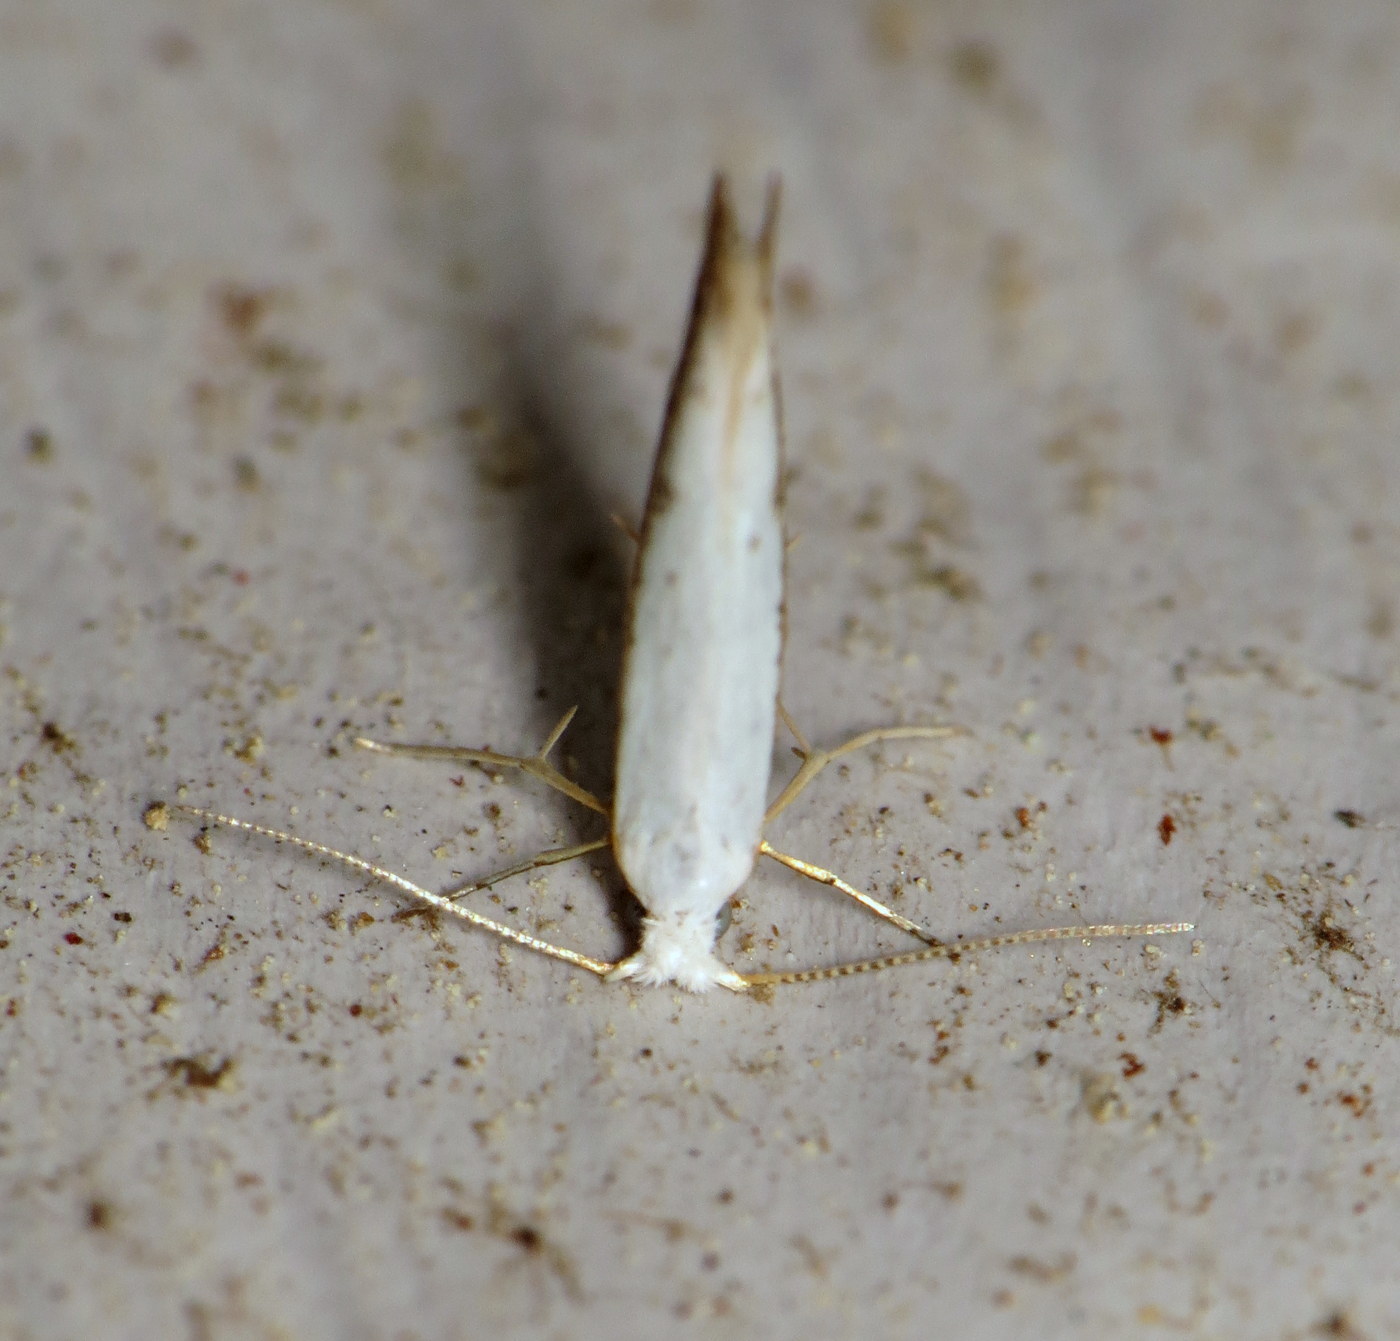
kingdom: Animalia
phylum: Arthropoda
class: Insecta
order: Lepidoptera
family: Argyresthiidae
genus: Argyresthia
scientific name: Argyresthia subreticulata
